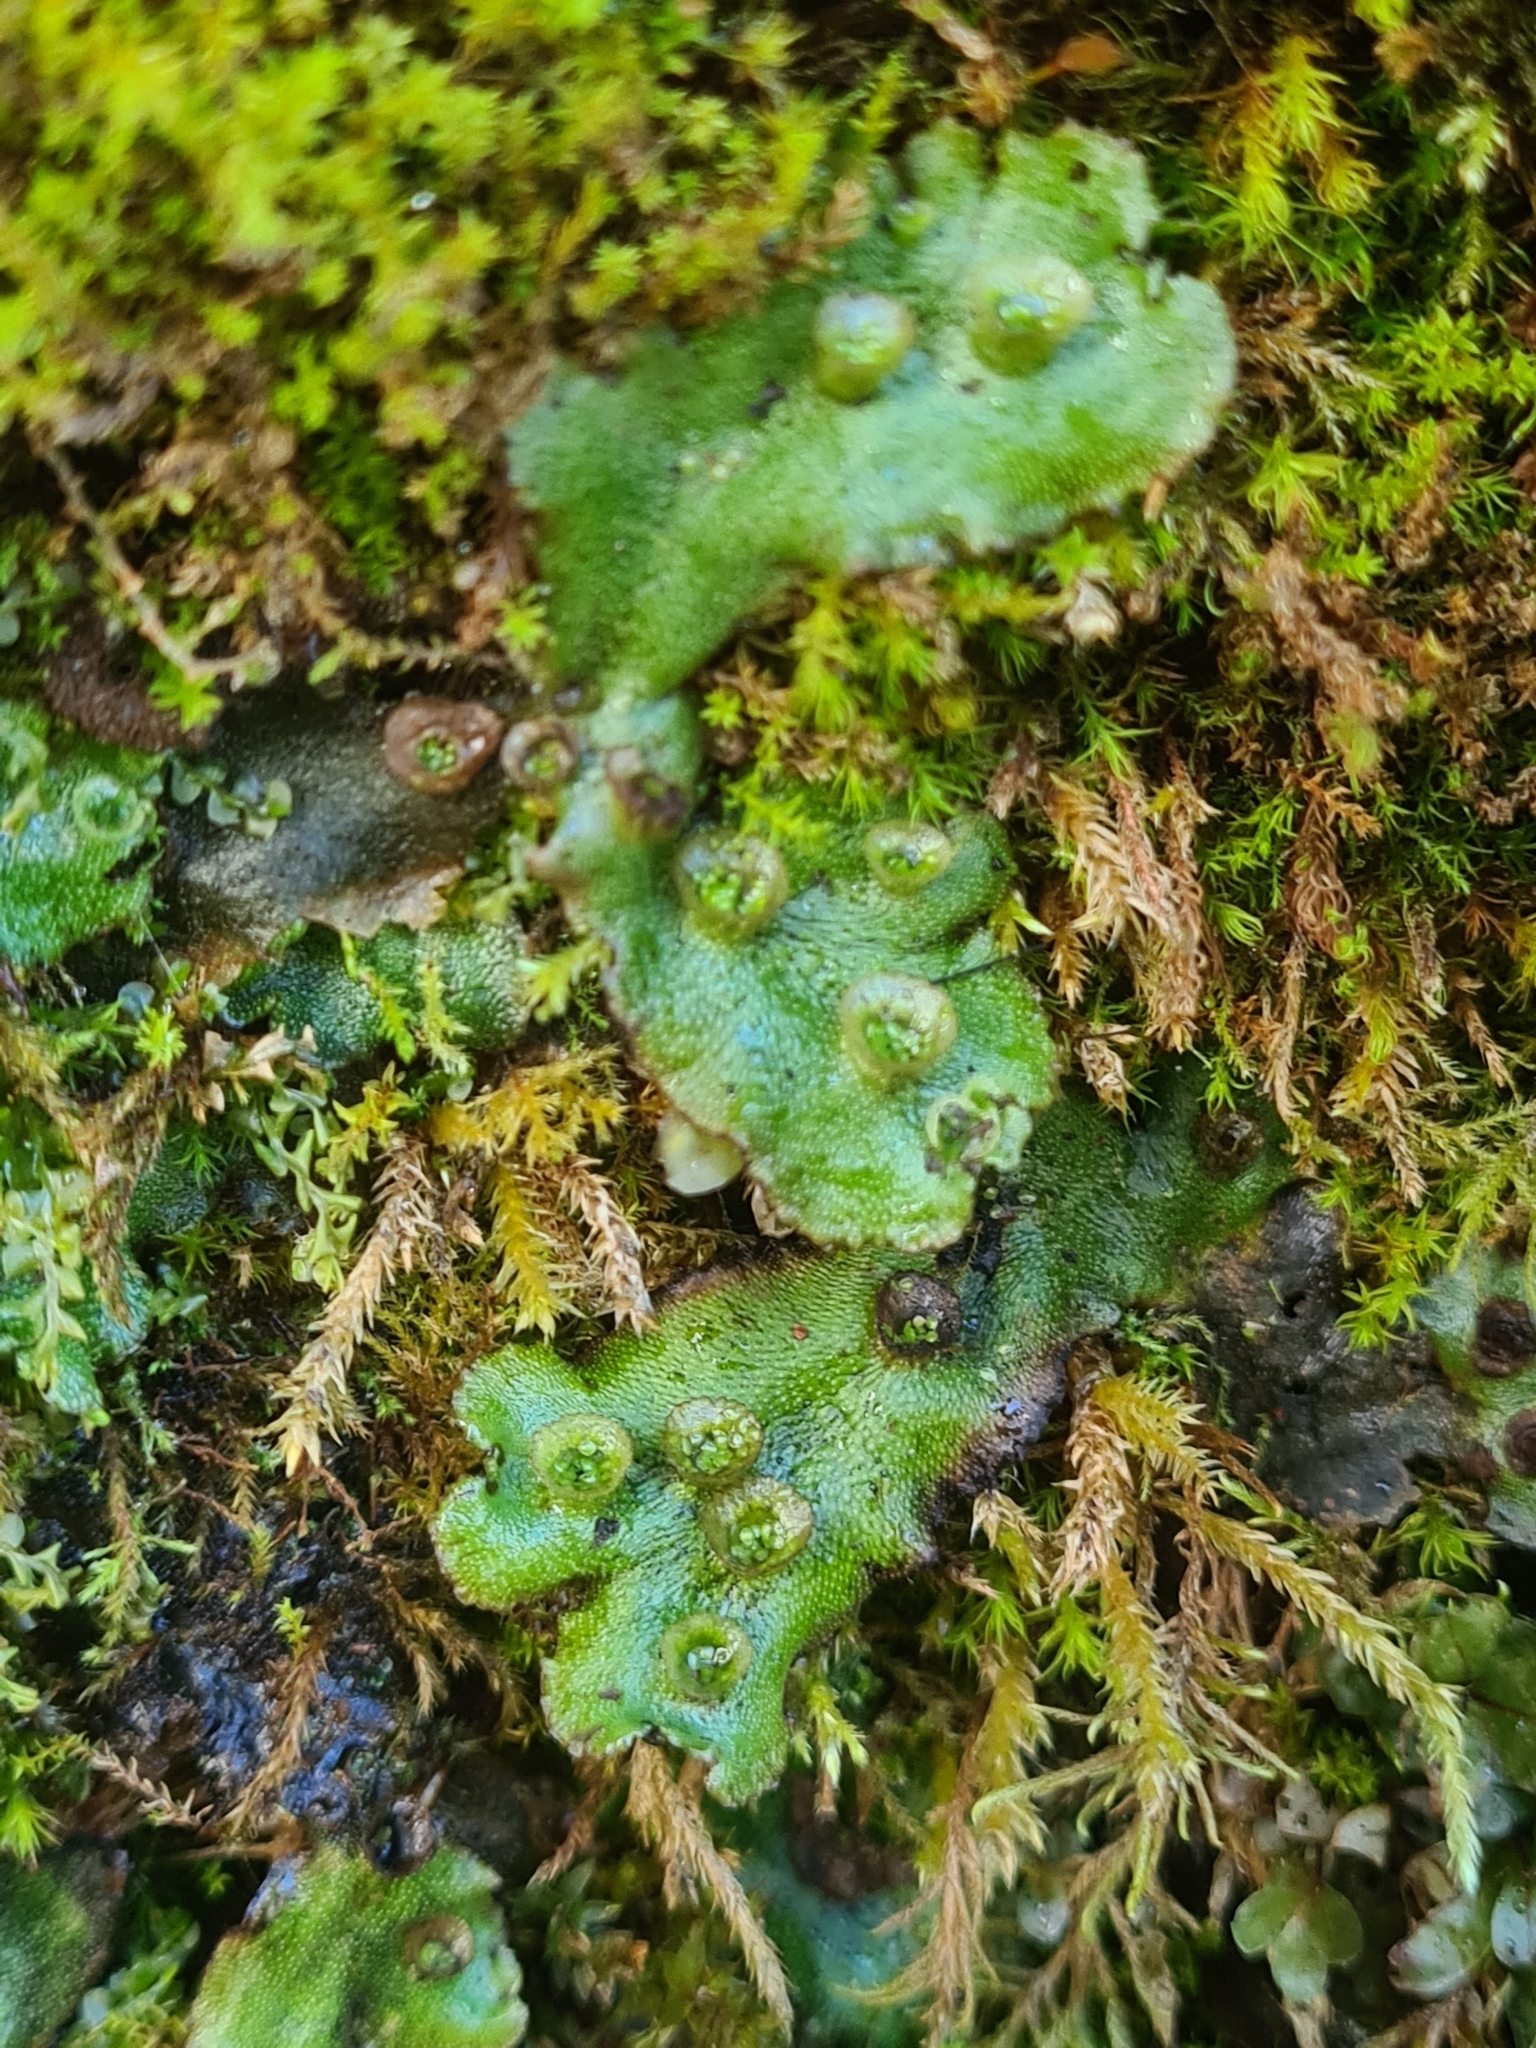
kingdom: Plantae
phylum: Marchantiophyta
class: Marchantiopsida
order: Marchantiales
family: Marchantiaceae
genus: Marchantia
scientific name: Marchantia polymorpha
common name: Common liverwort
